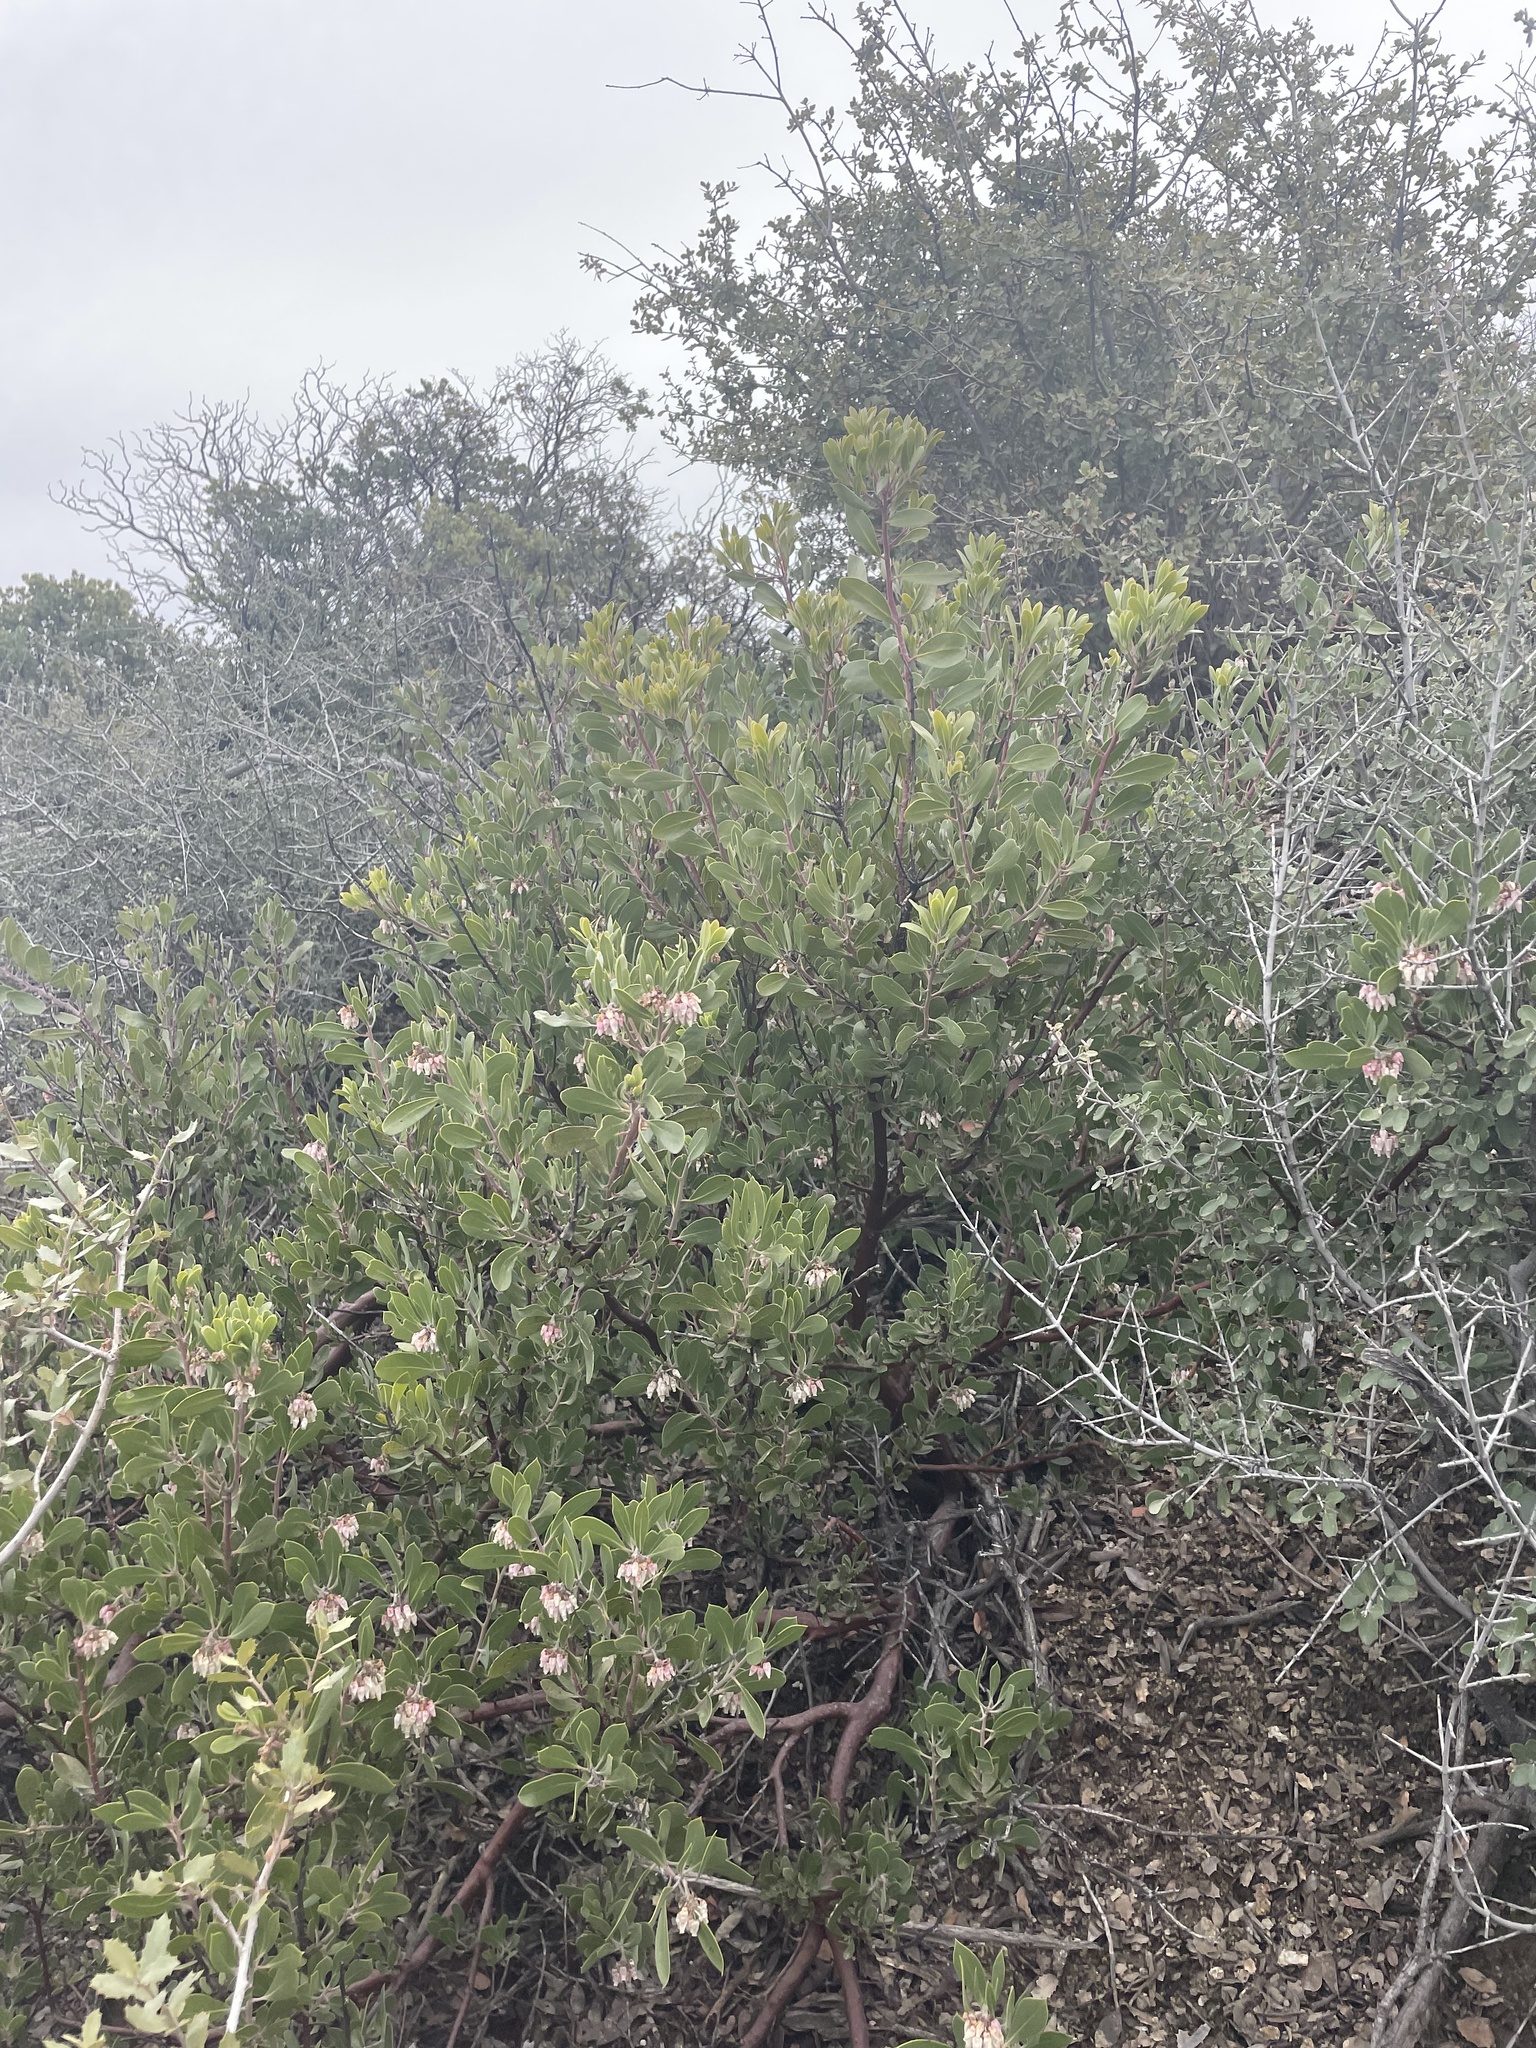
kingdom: Plantae
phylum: Tracheophyta
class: Magnoliopsida
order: Ericales
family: Ericaceae
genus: Arctostaphylos
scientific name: Arctostaphylos pungens
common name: Mexican manzanita
